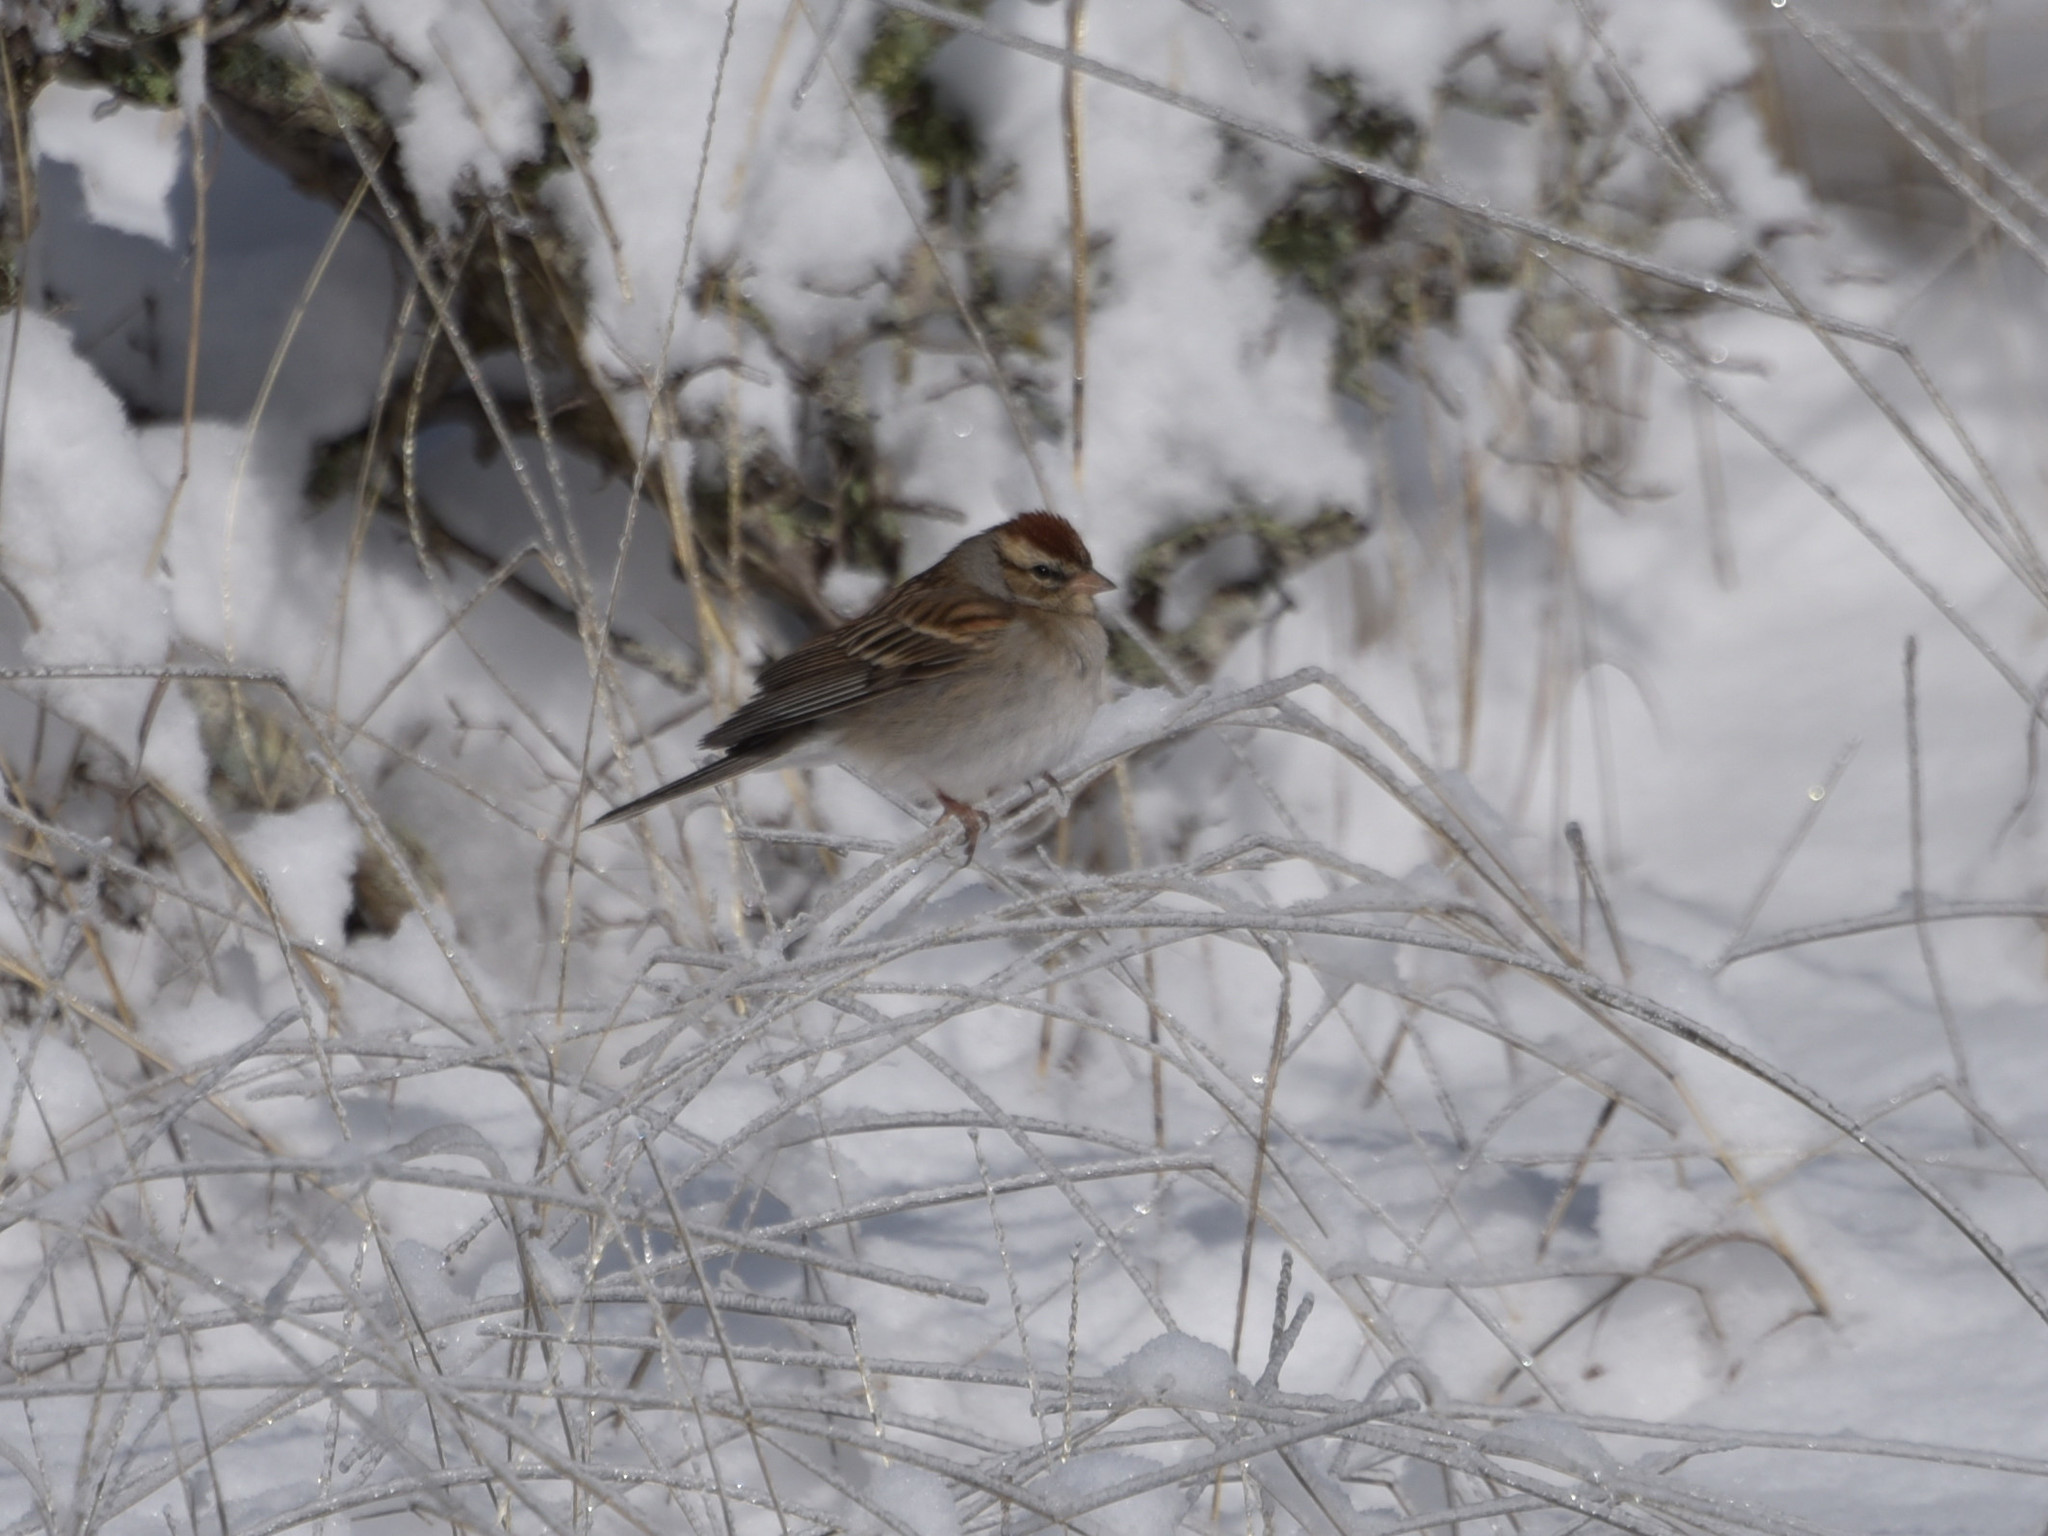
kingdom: Animalia
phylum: Chordata
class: Aves
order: Passeriformes
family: Passerellidae
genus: Spizella
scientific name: Spizella passerina
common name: Chipping sparrow
